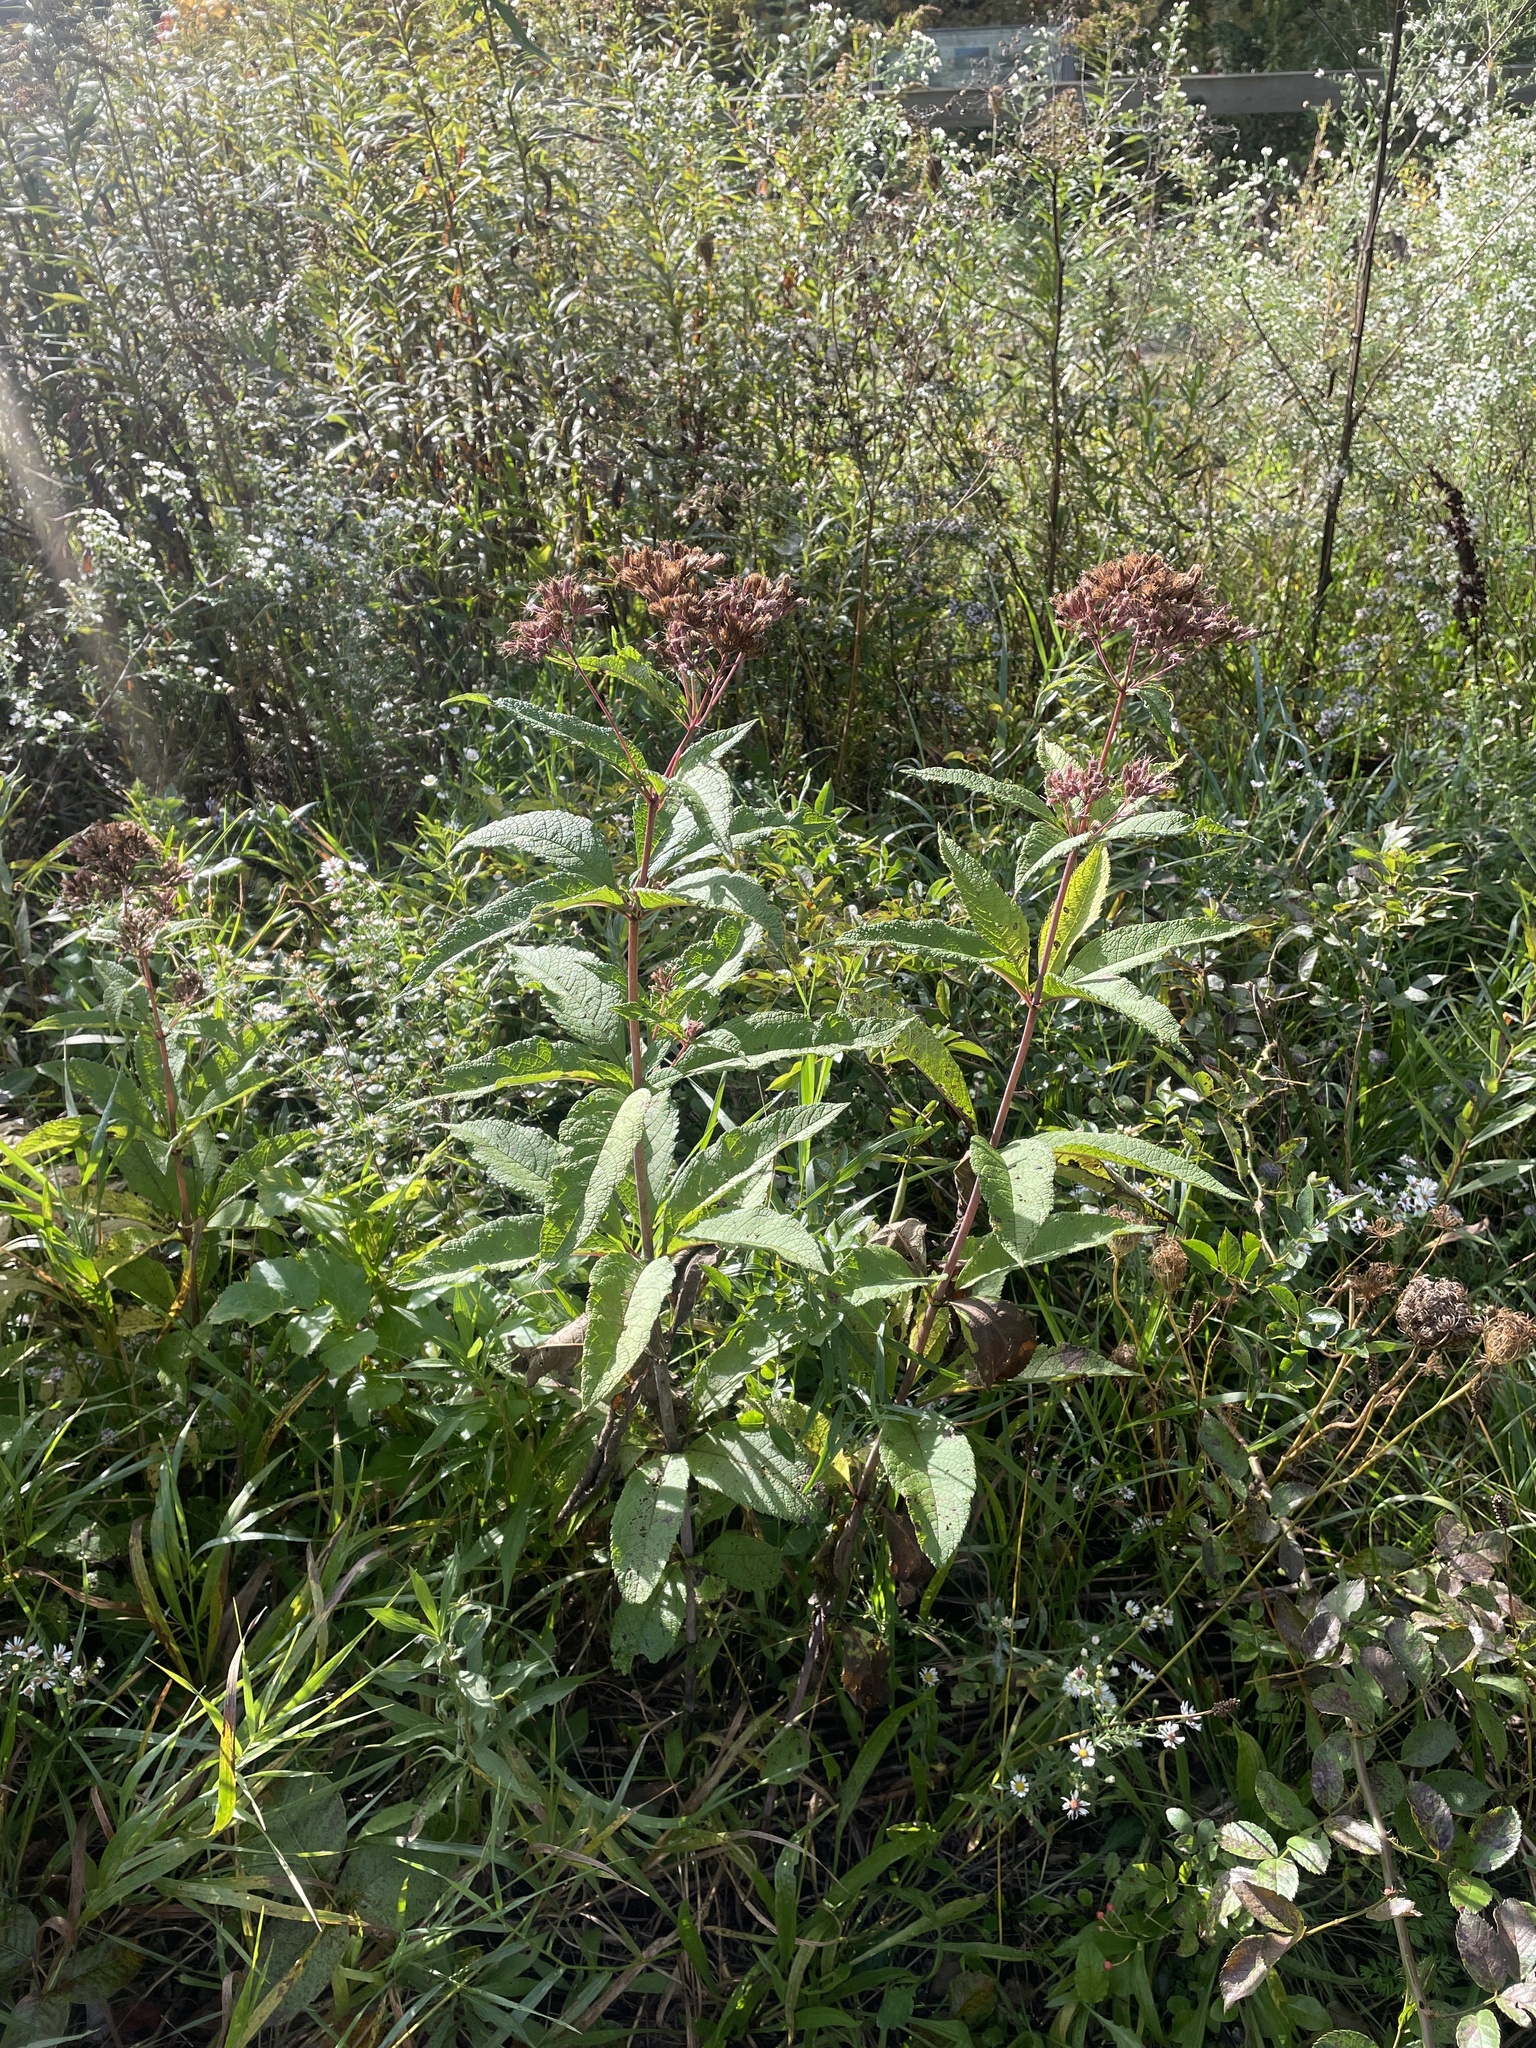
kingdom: Plantae
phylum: Tracheophyta
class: Magnoliopsida
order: Asterales
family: Asteraceae
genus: Eutrochium
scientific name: Eutrochium fistulosum
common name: Trumpetweed
